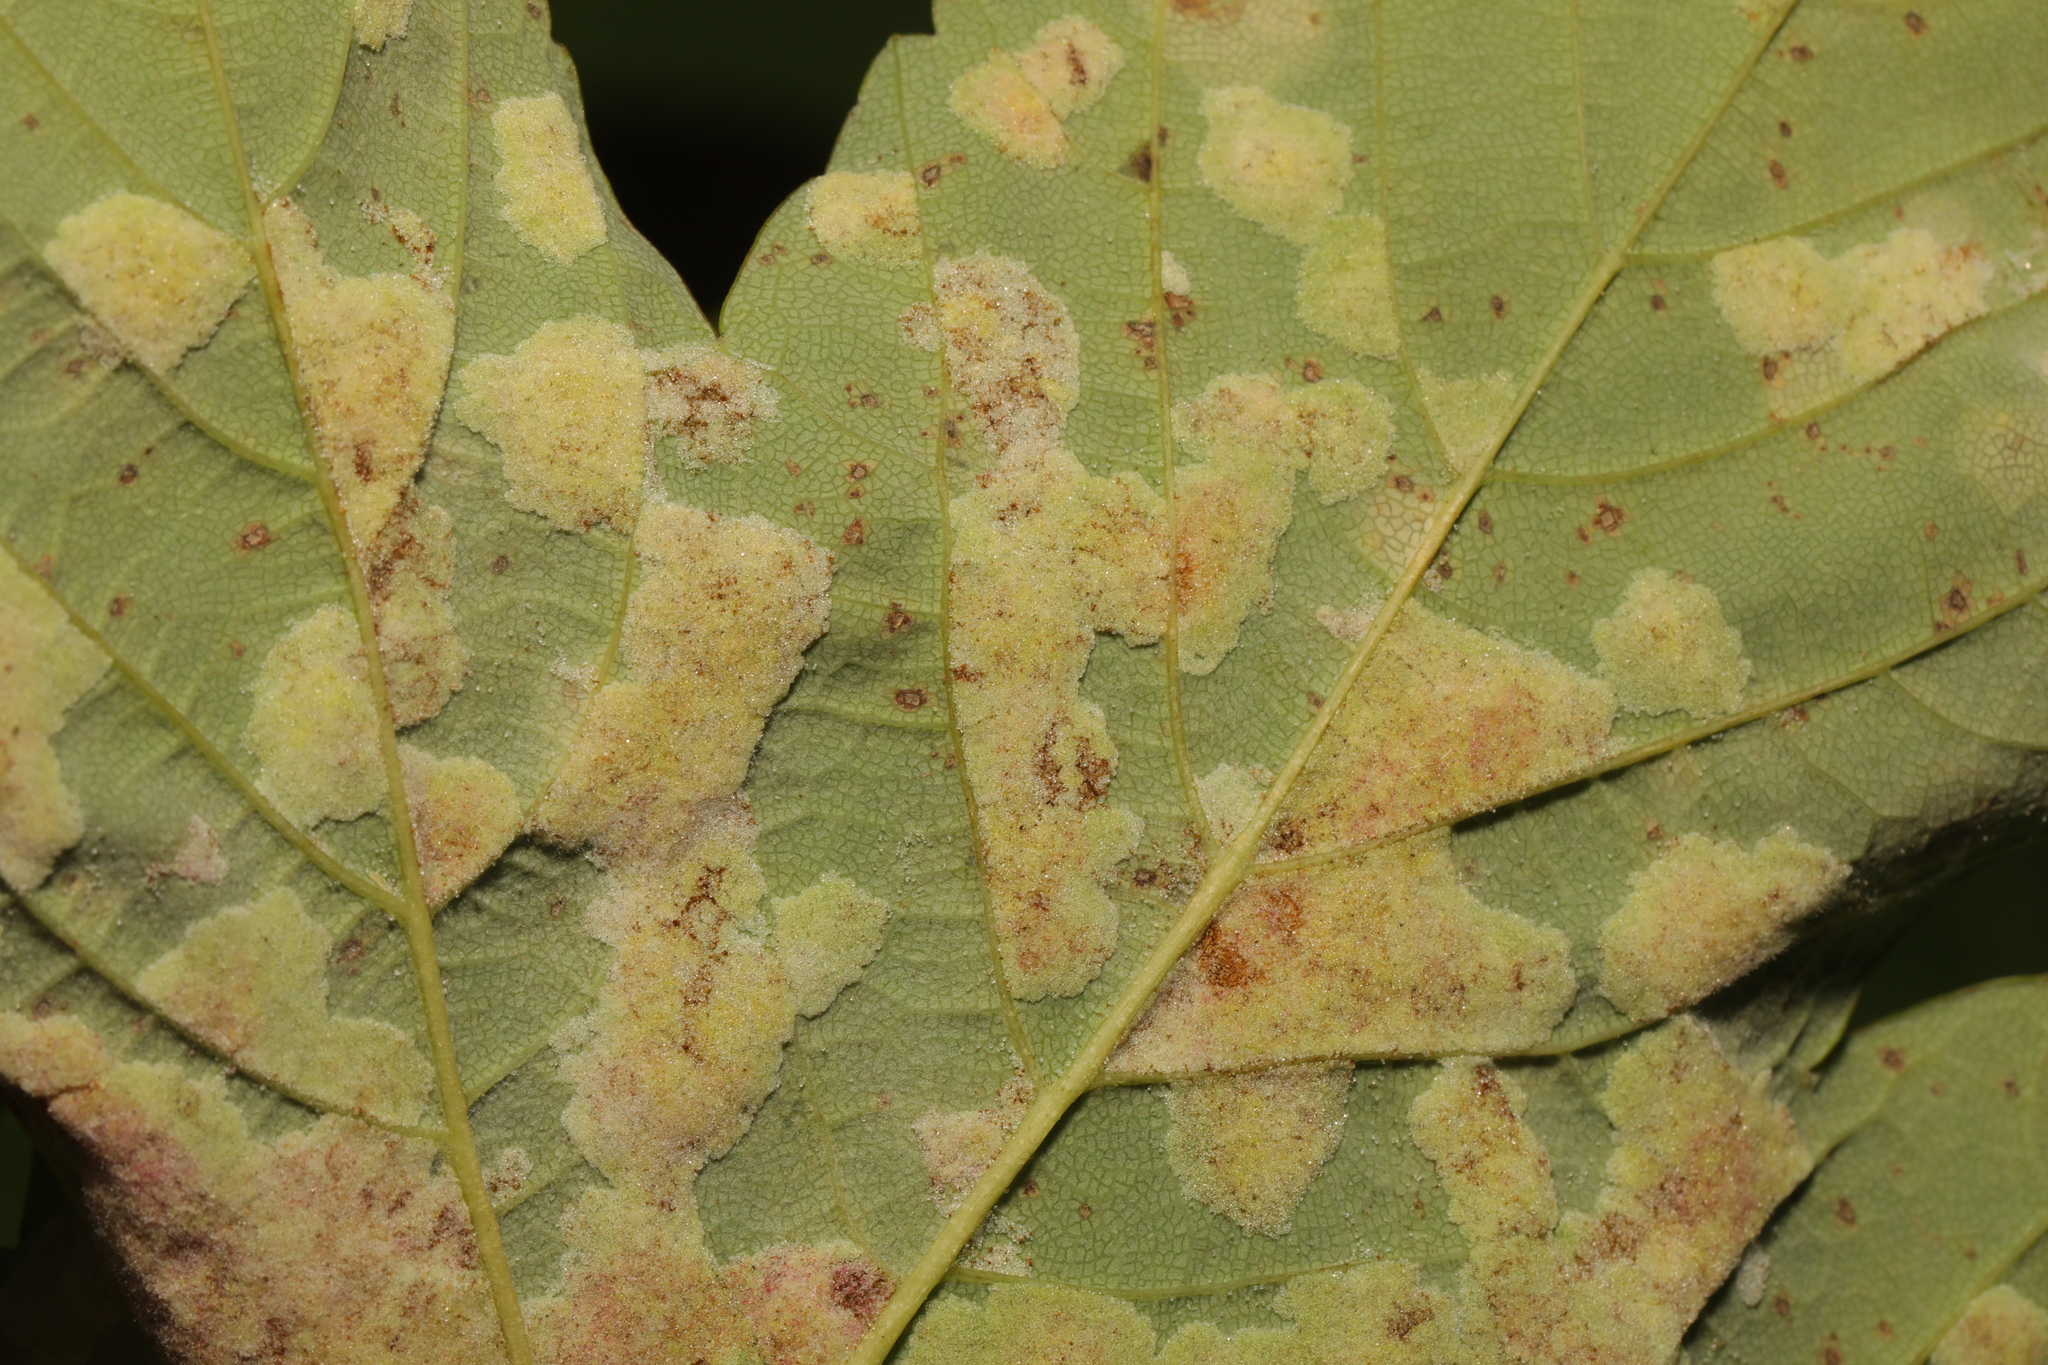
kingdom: Animalia
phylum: Arthropoda
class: Arachnida
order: Trombidiformes
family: Eriophyidae
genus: Aceria
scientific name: Aceria pseudoplatani
